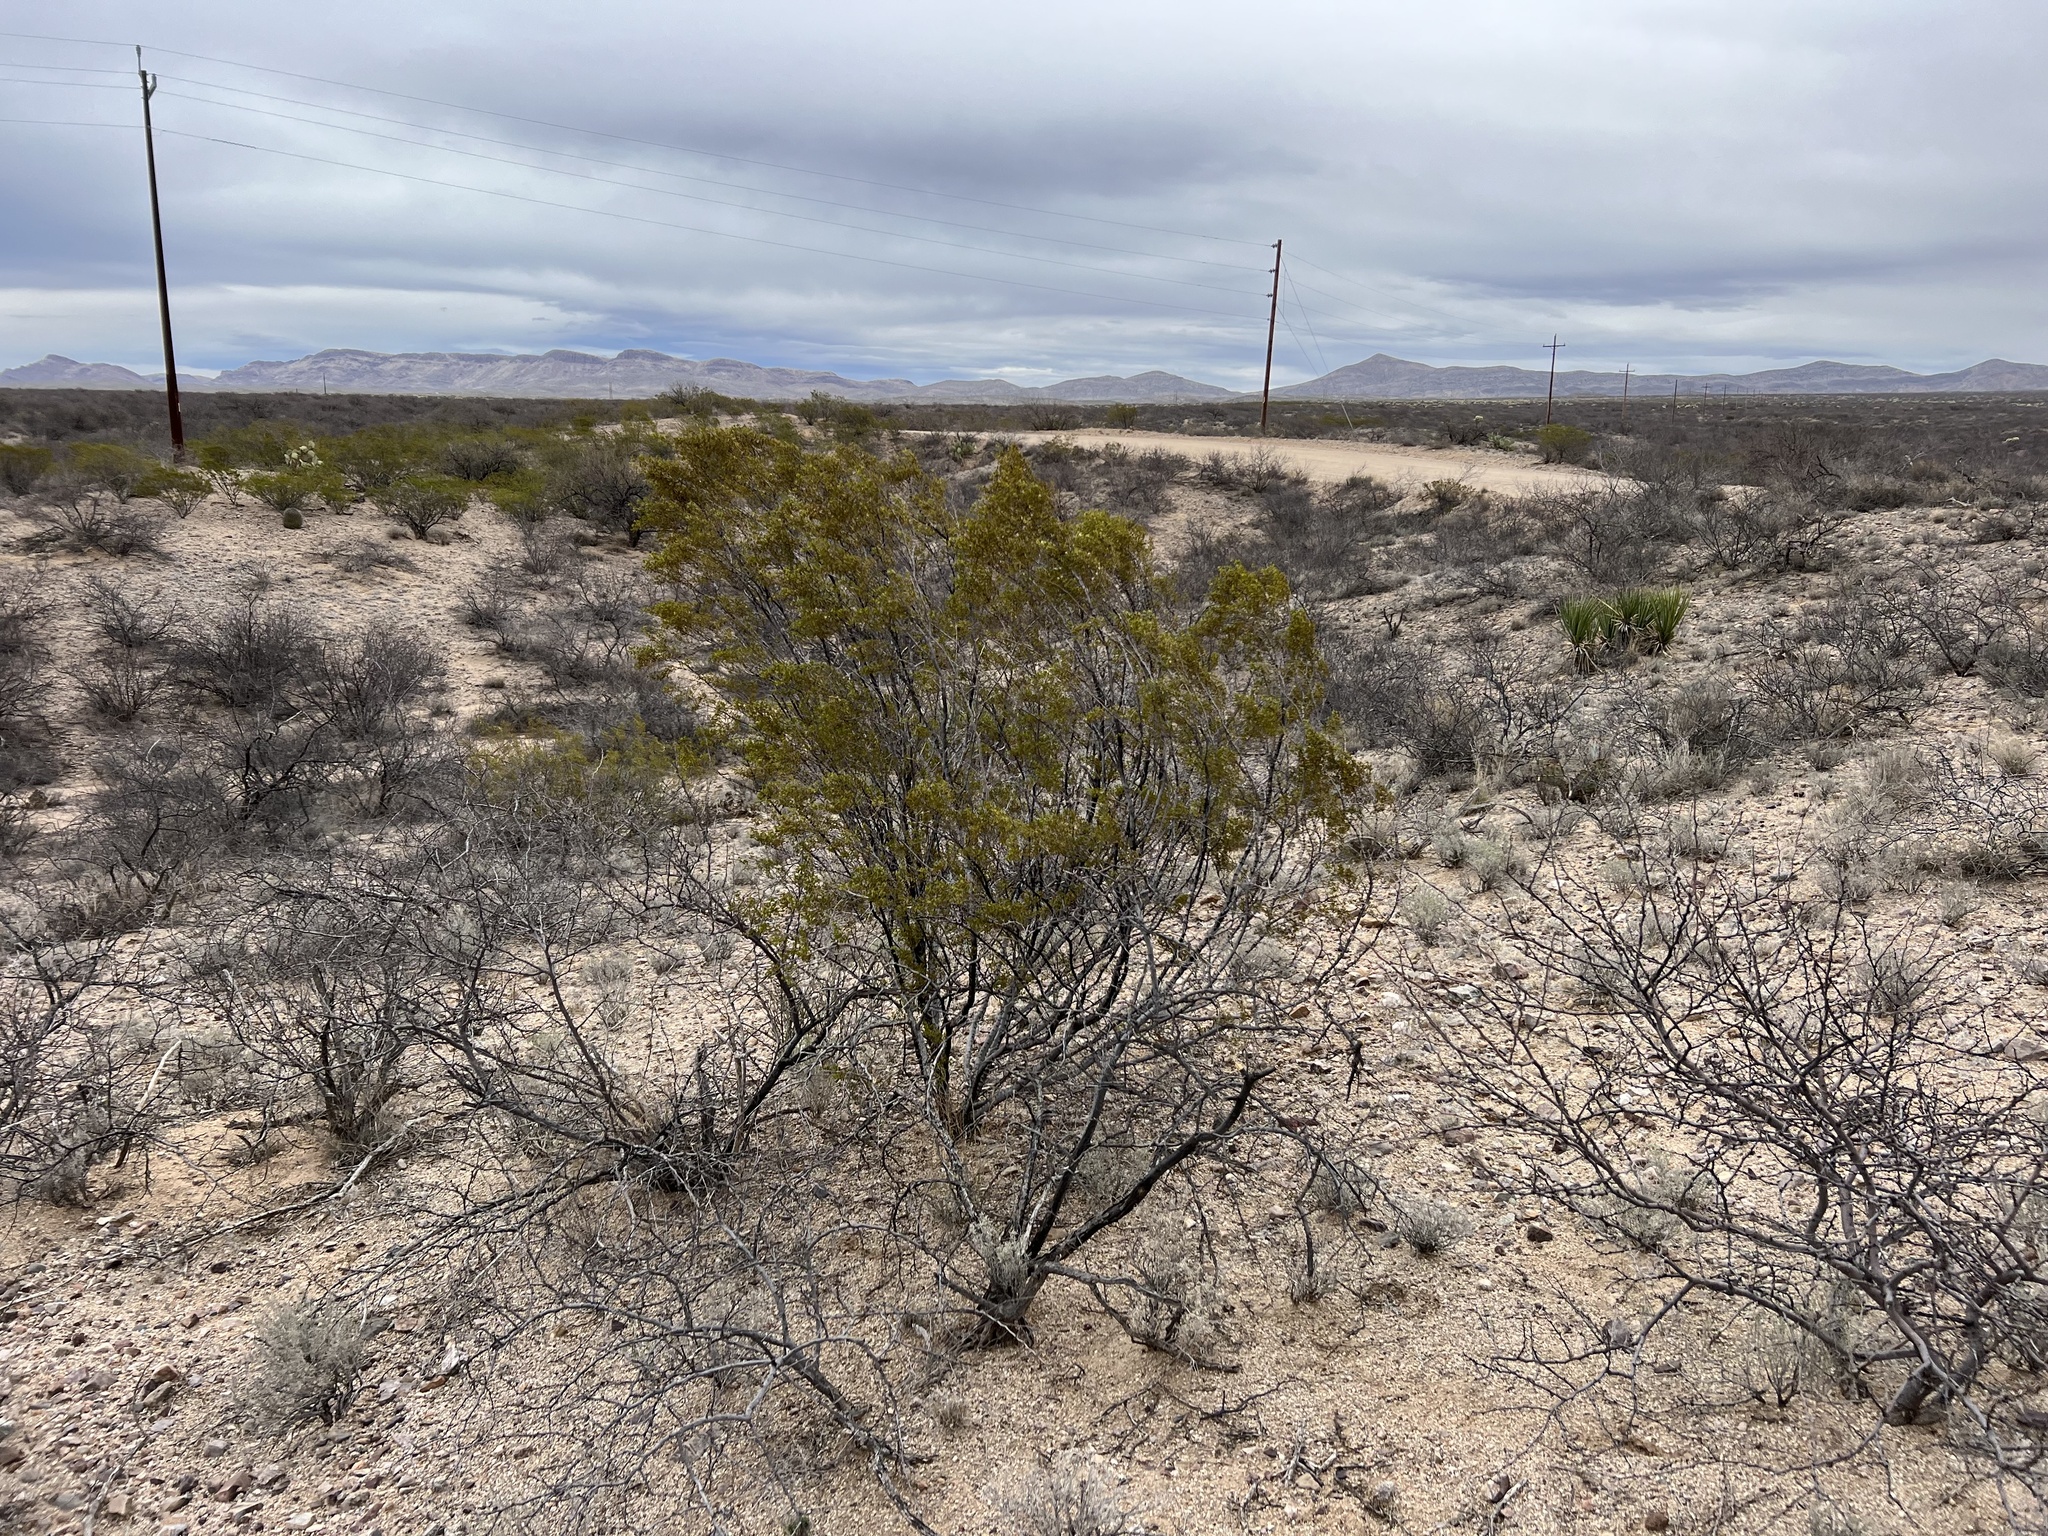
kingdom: Plantae
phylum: Tracheophyta
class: Magnoliopsida
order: Zygophyllales
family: Zygophyllaceae
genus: Larrea
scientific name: Larrea tridentata
